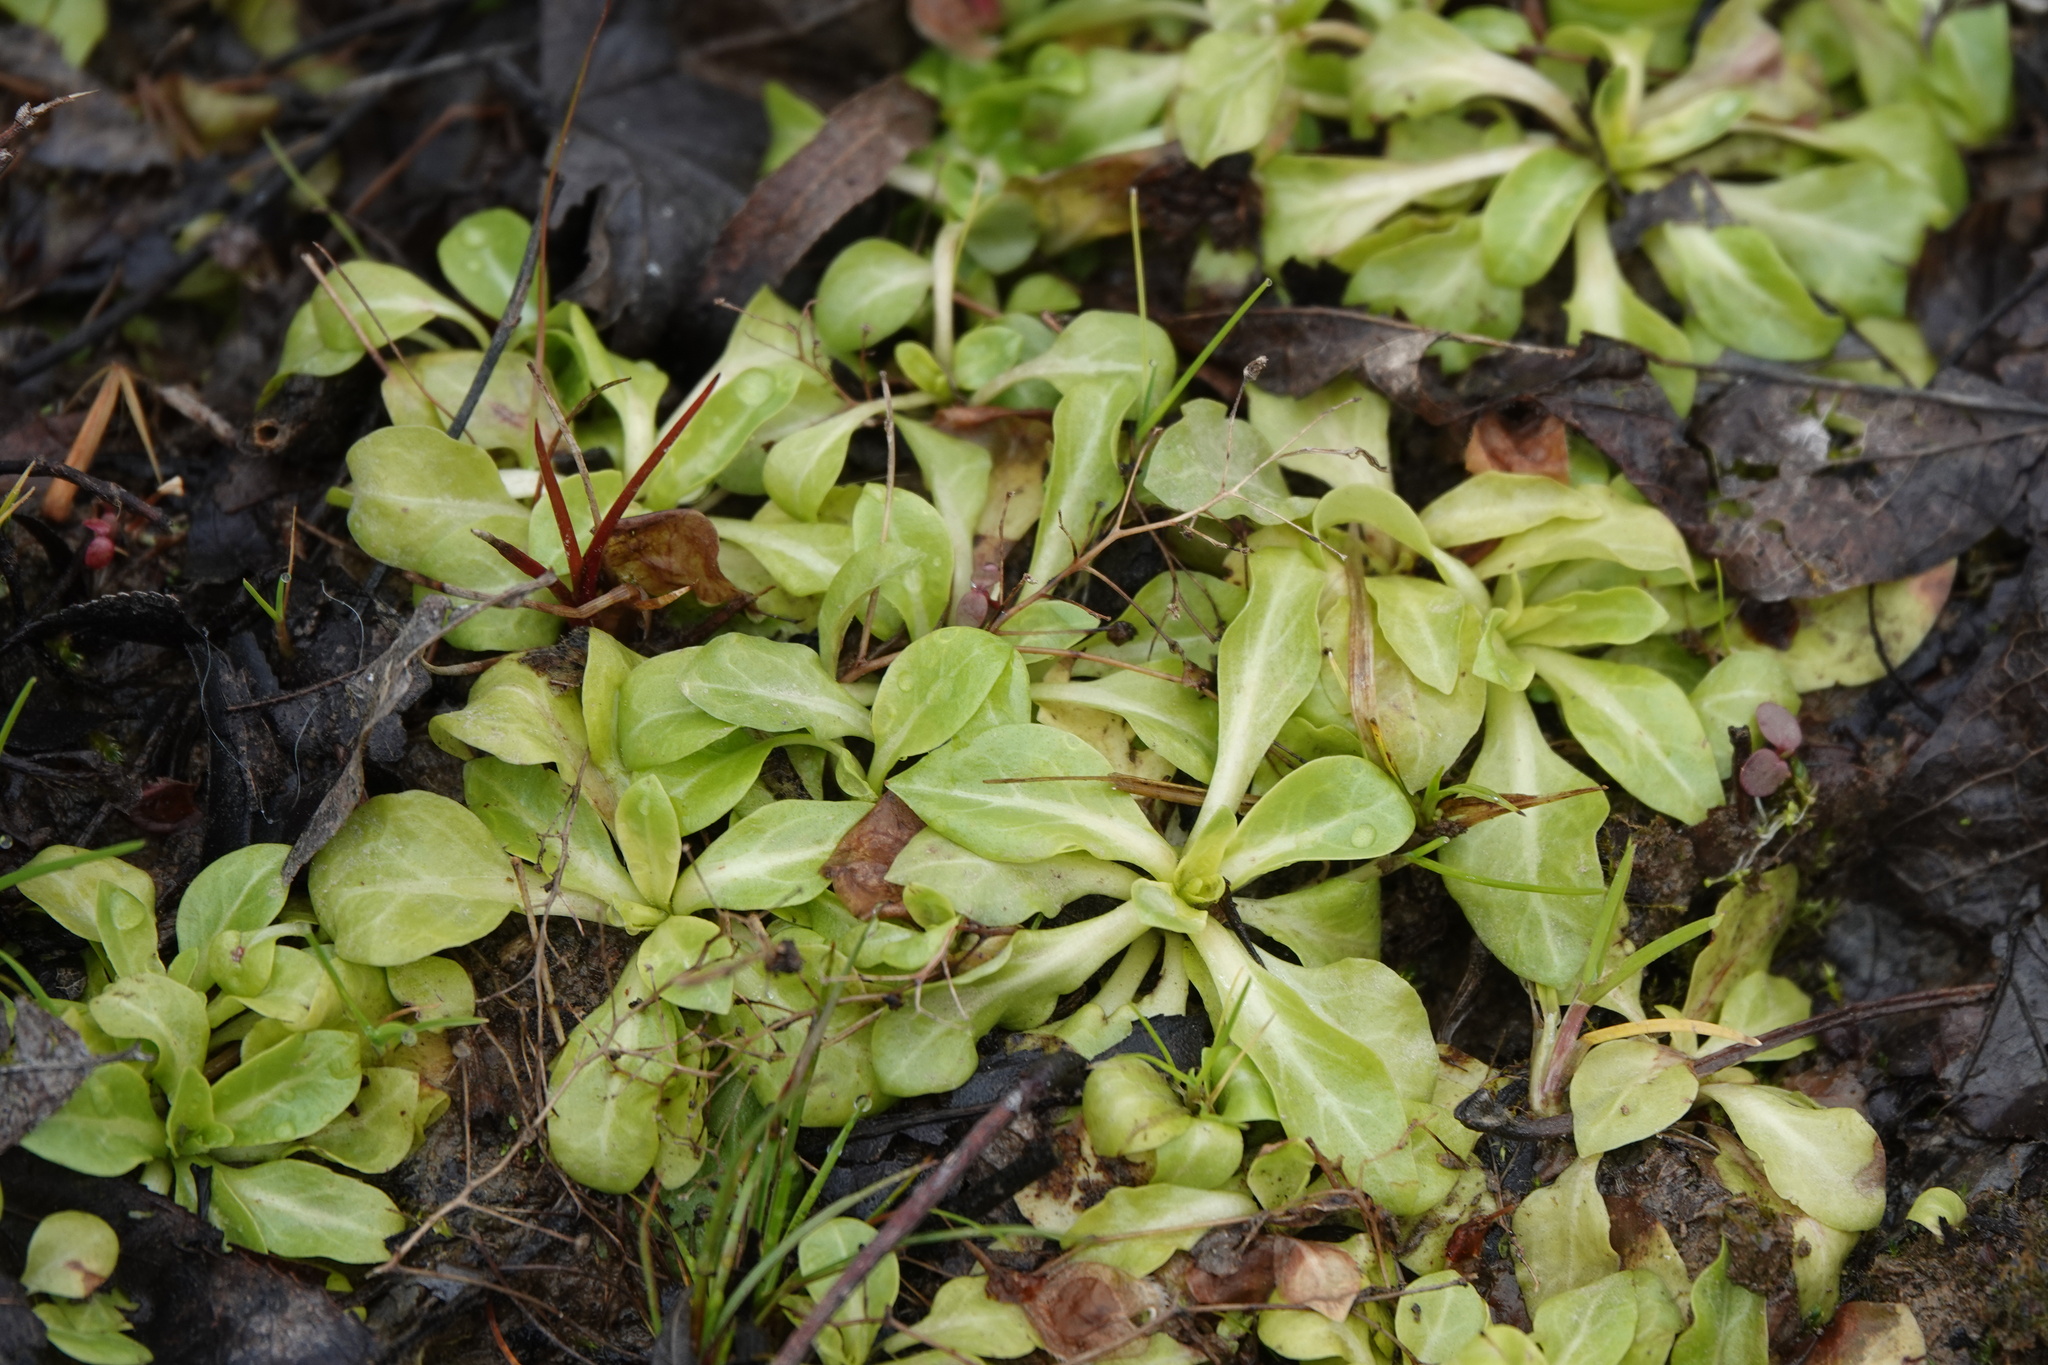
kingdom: Plantae
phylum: Tracheophyta
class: Magnoliopsida
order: Ericales
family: Primulaceae
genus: Samolus
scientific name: Samolus parviflorus
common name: False water pimpernel
